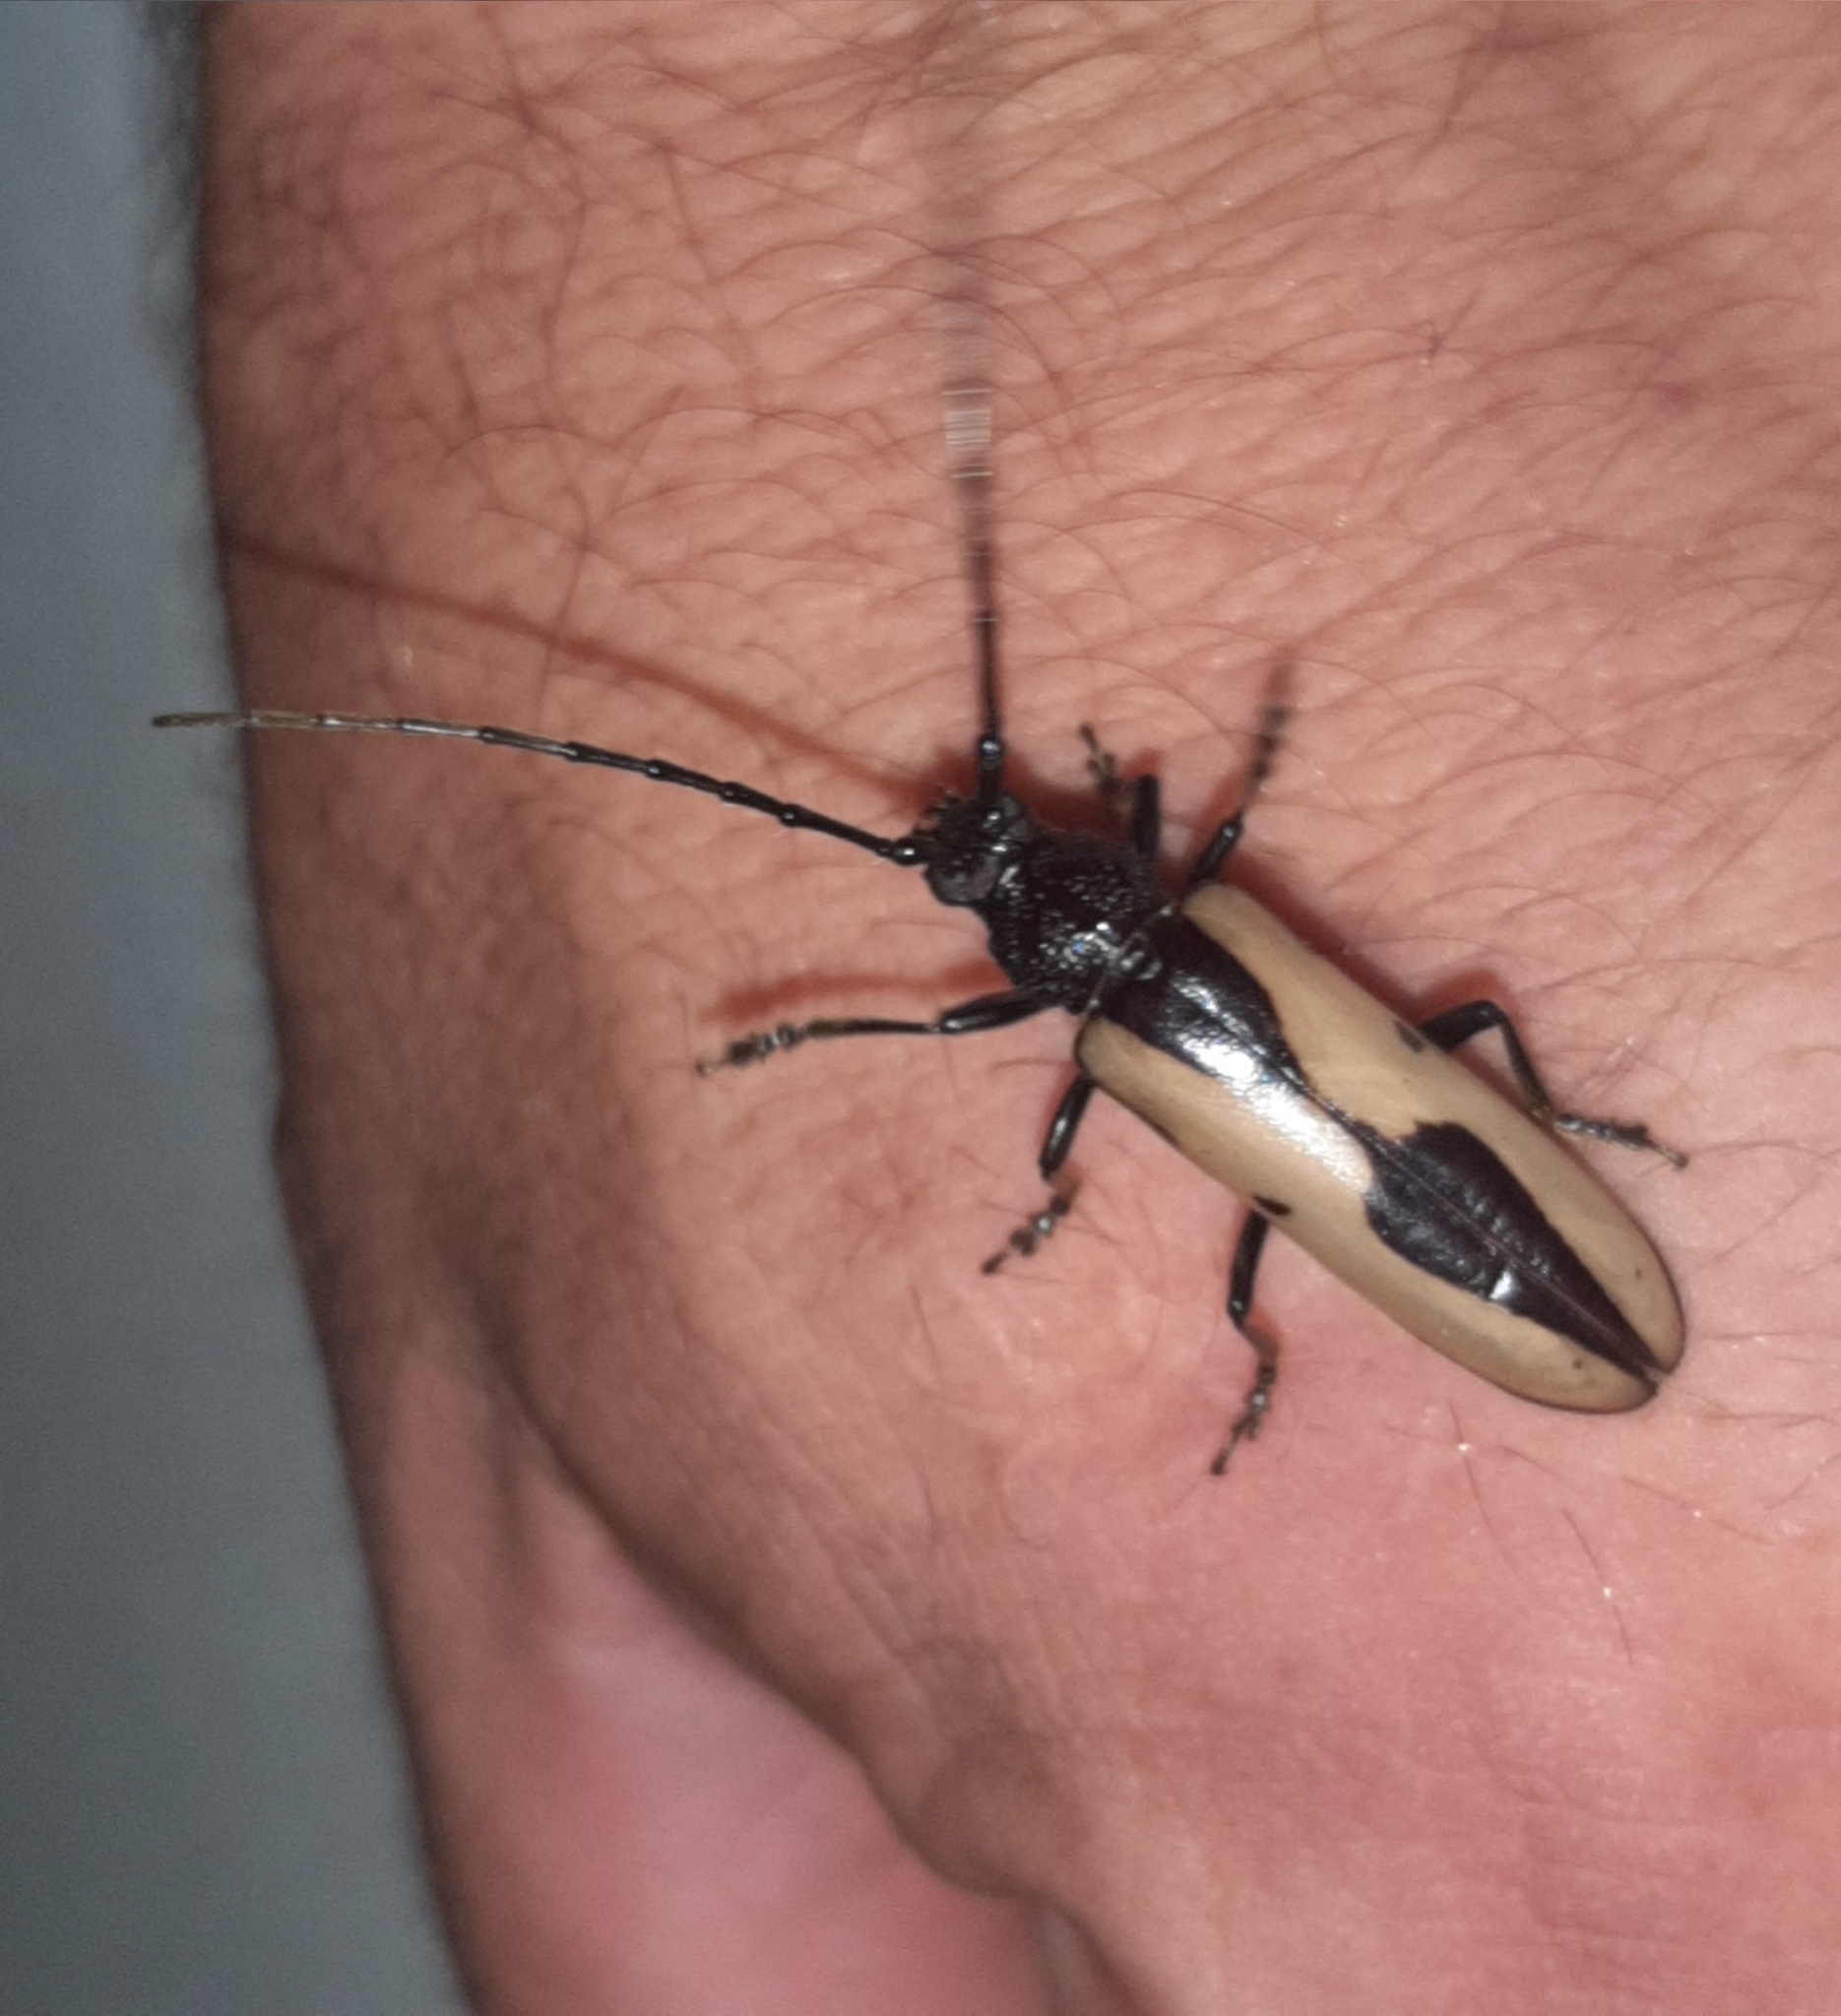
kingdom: Animalia
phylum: Arthropoda
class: Insecta
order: Coleoptera
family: Cerambycidae
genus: Poeciloxestia
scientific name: Poeciloxestia lanceolata
